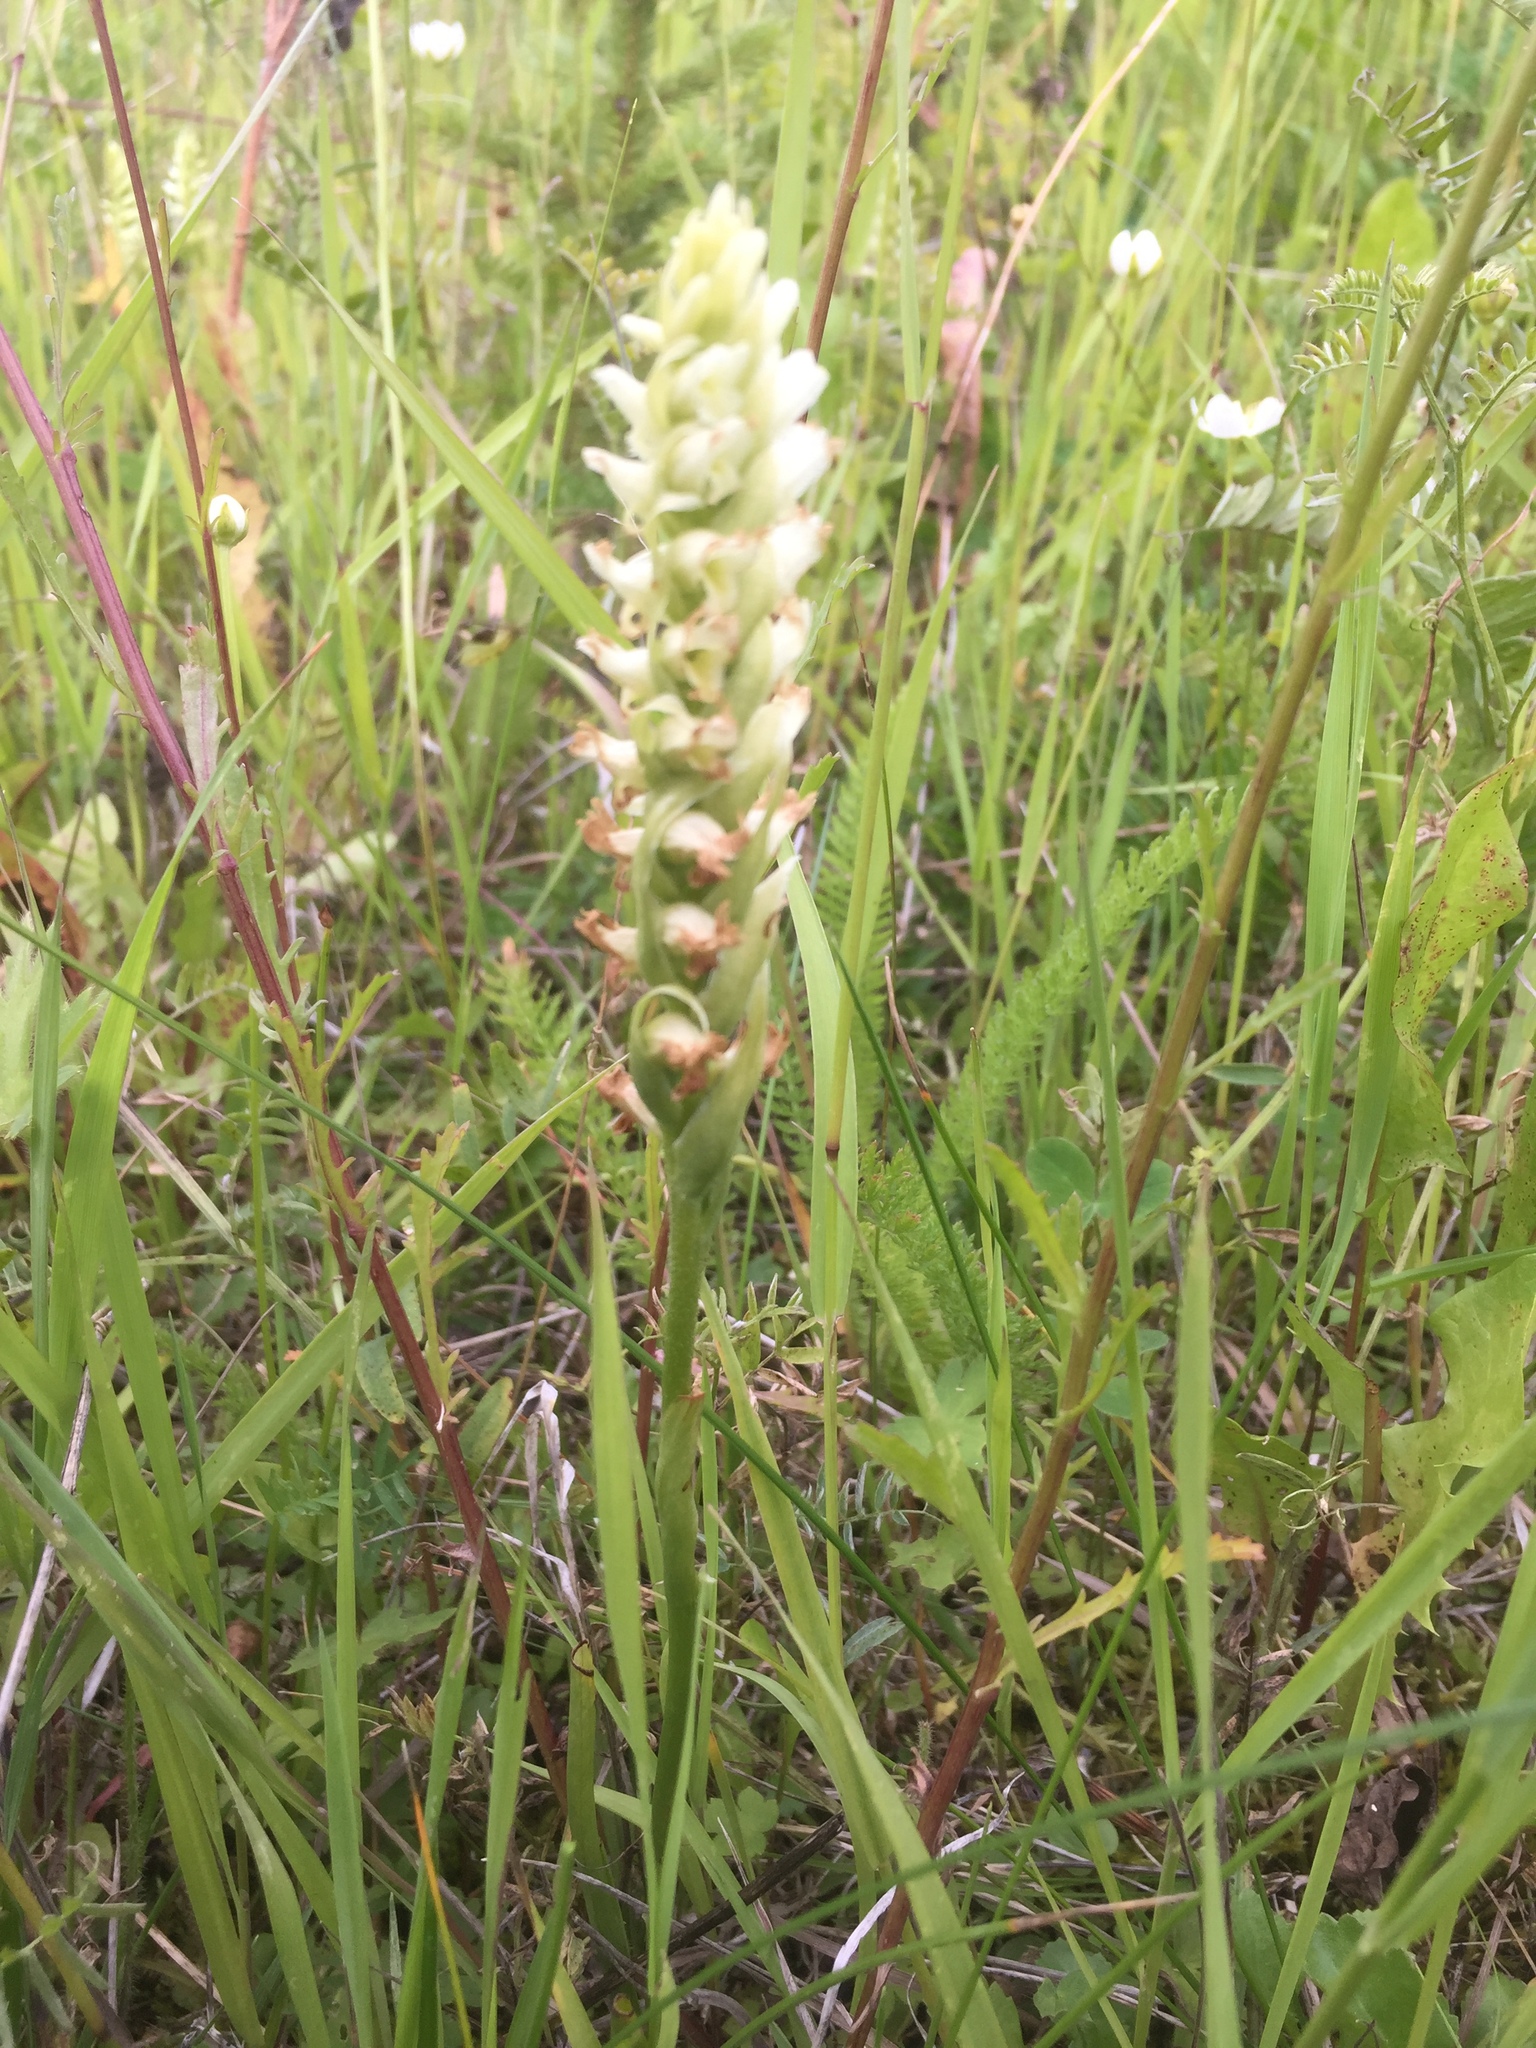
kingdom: Plantae
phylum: Tracheophyta
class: Liliopsida
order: Asparagales
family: Orchidaceae
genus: Spiranthes
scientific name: Spiranthes romanzoffiana
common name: Irish lady's-tresses
